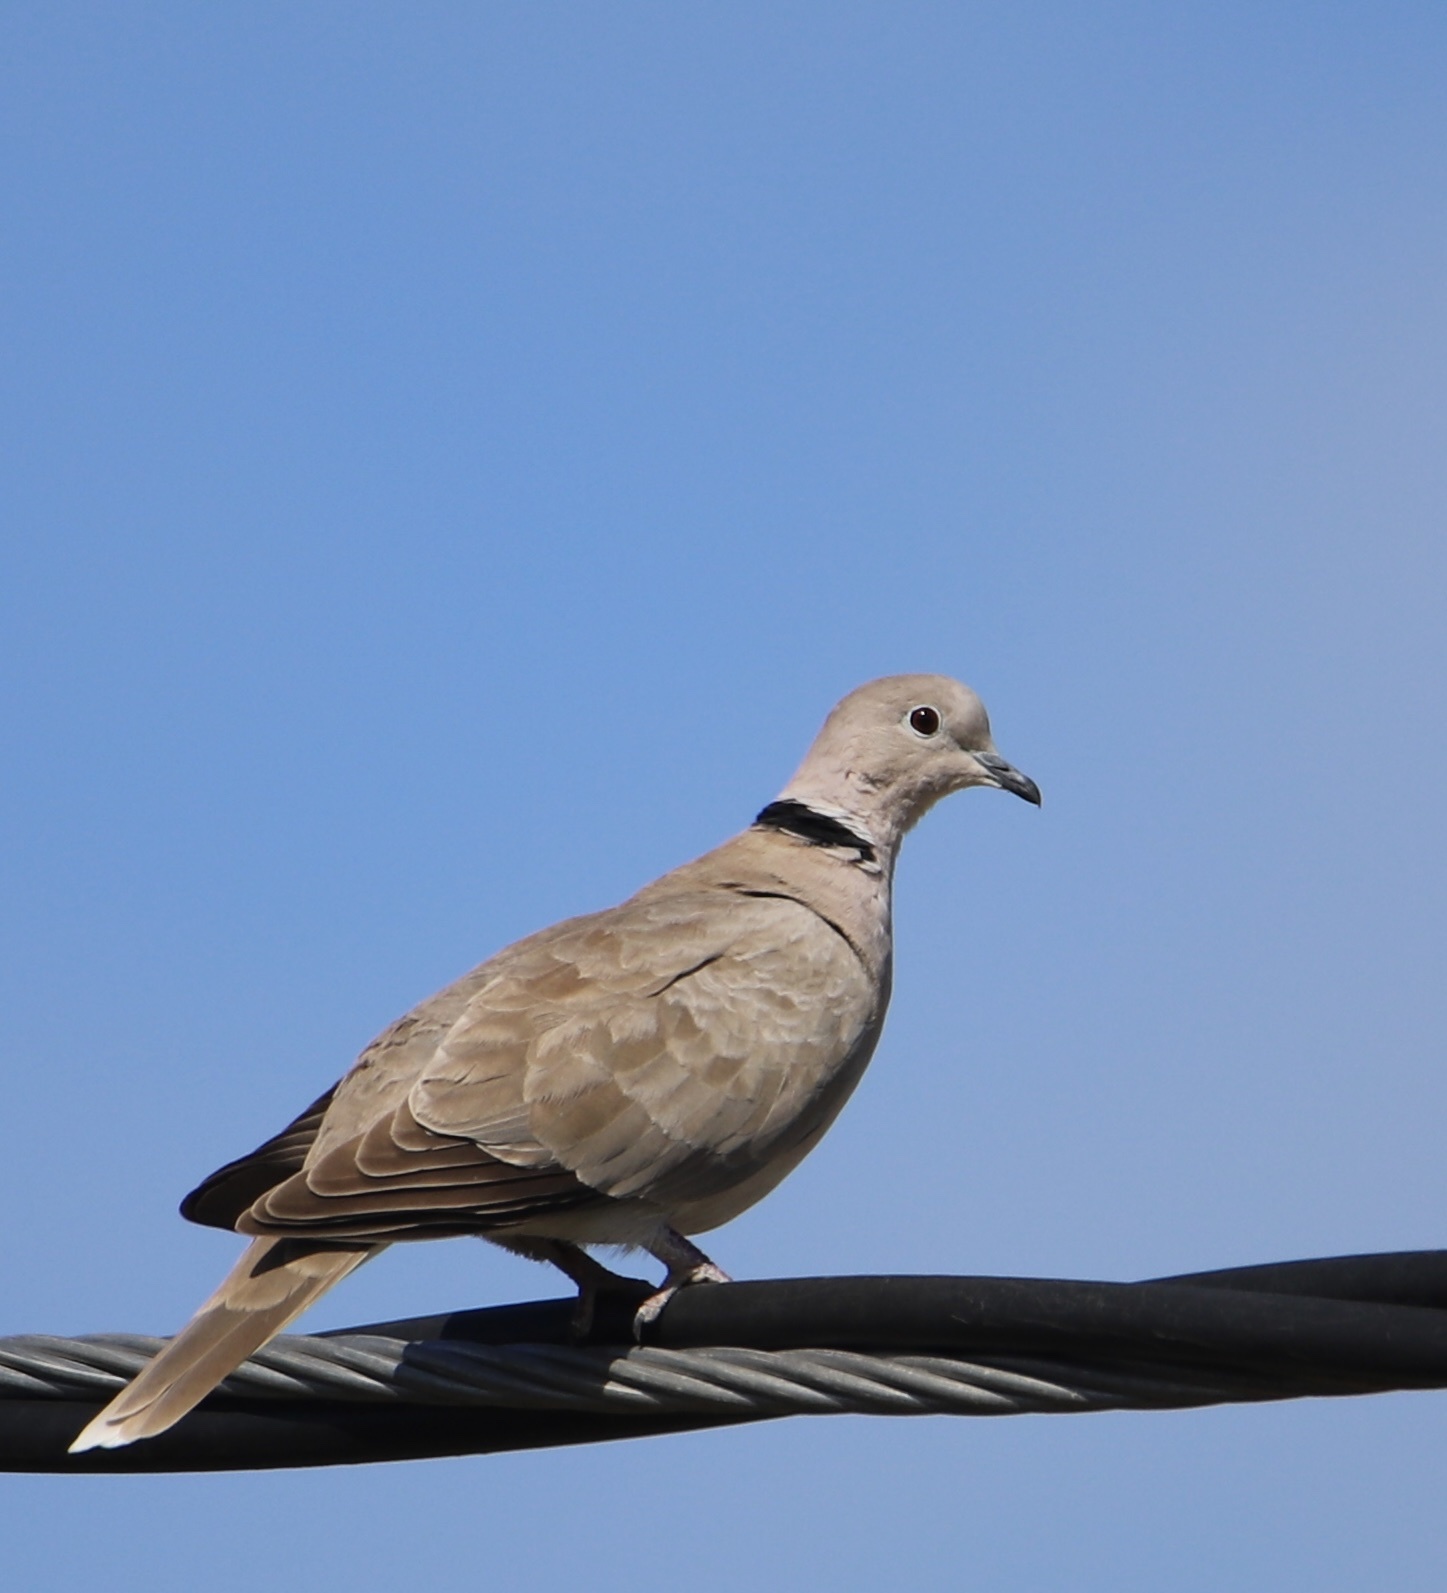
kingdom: Animalia
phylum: Chordata
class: Aves
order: Columbiformes
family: Columbidae
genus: Streptopelia
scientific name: Streptopelia decaocto
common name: Eurasian collared dove
